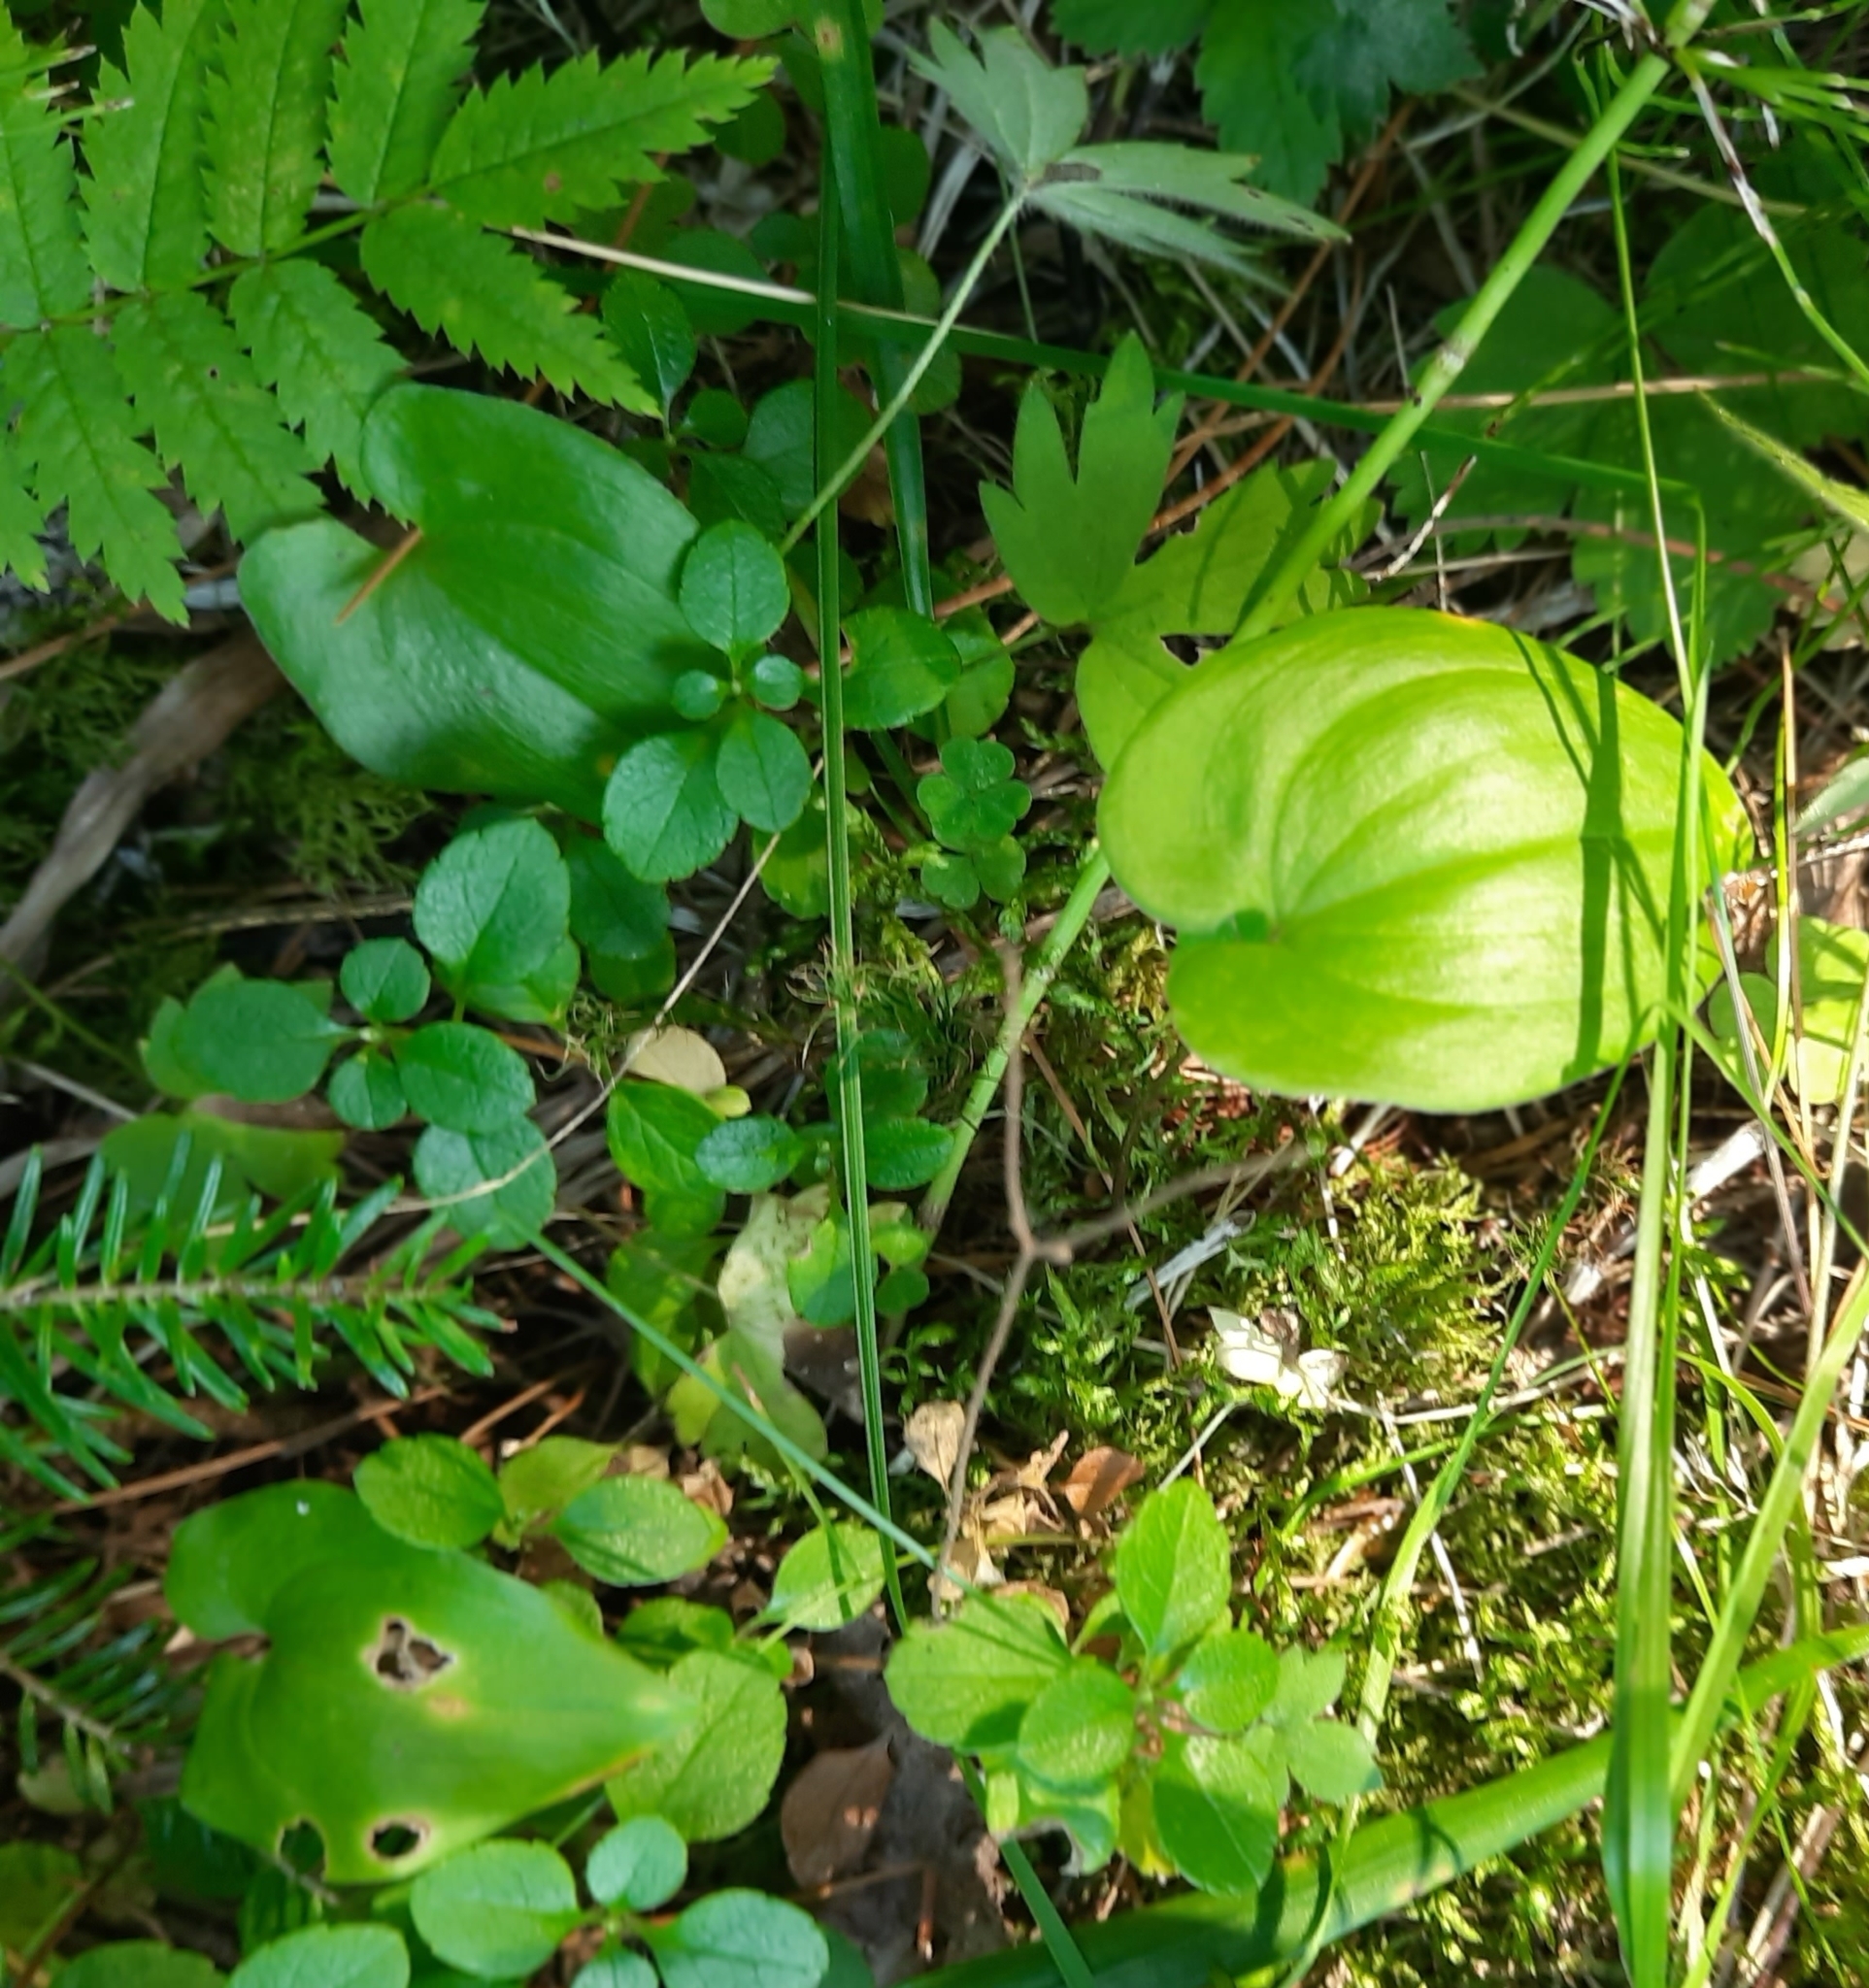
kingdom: Plantae
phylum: Tracheophyta
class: Liliopsida
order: Asparagales
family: Asparagaceae
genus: Maianthemum
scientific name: Maianthemum bifolium
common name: May lily
